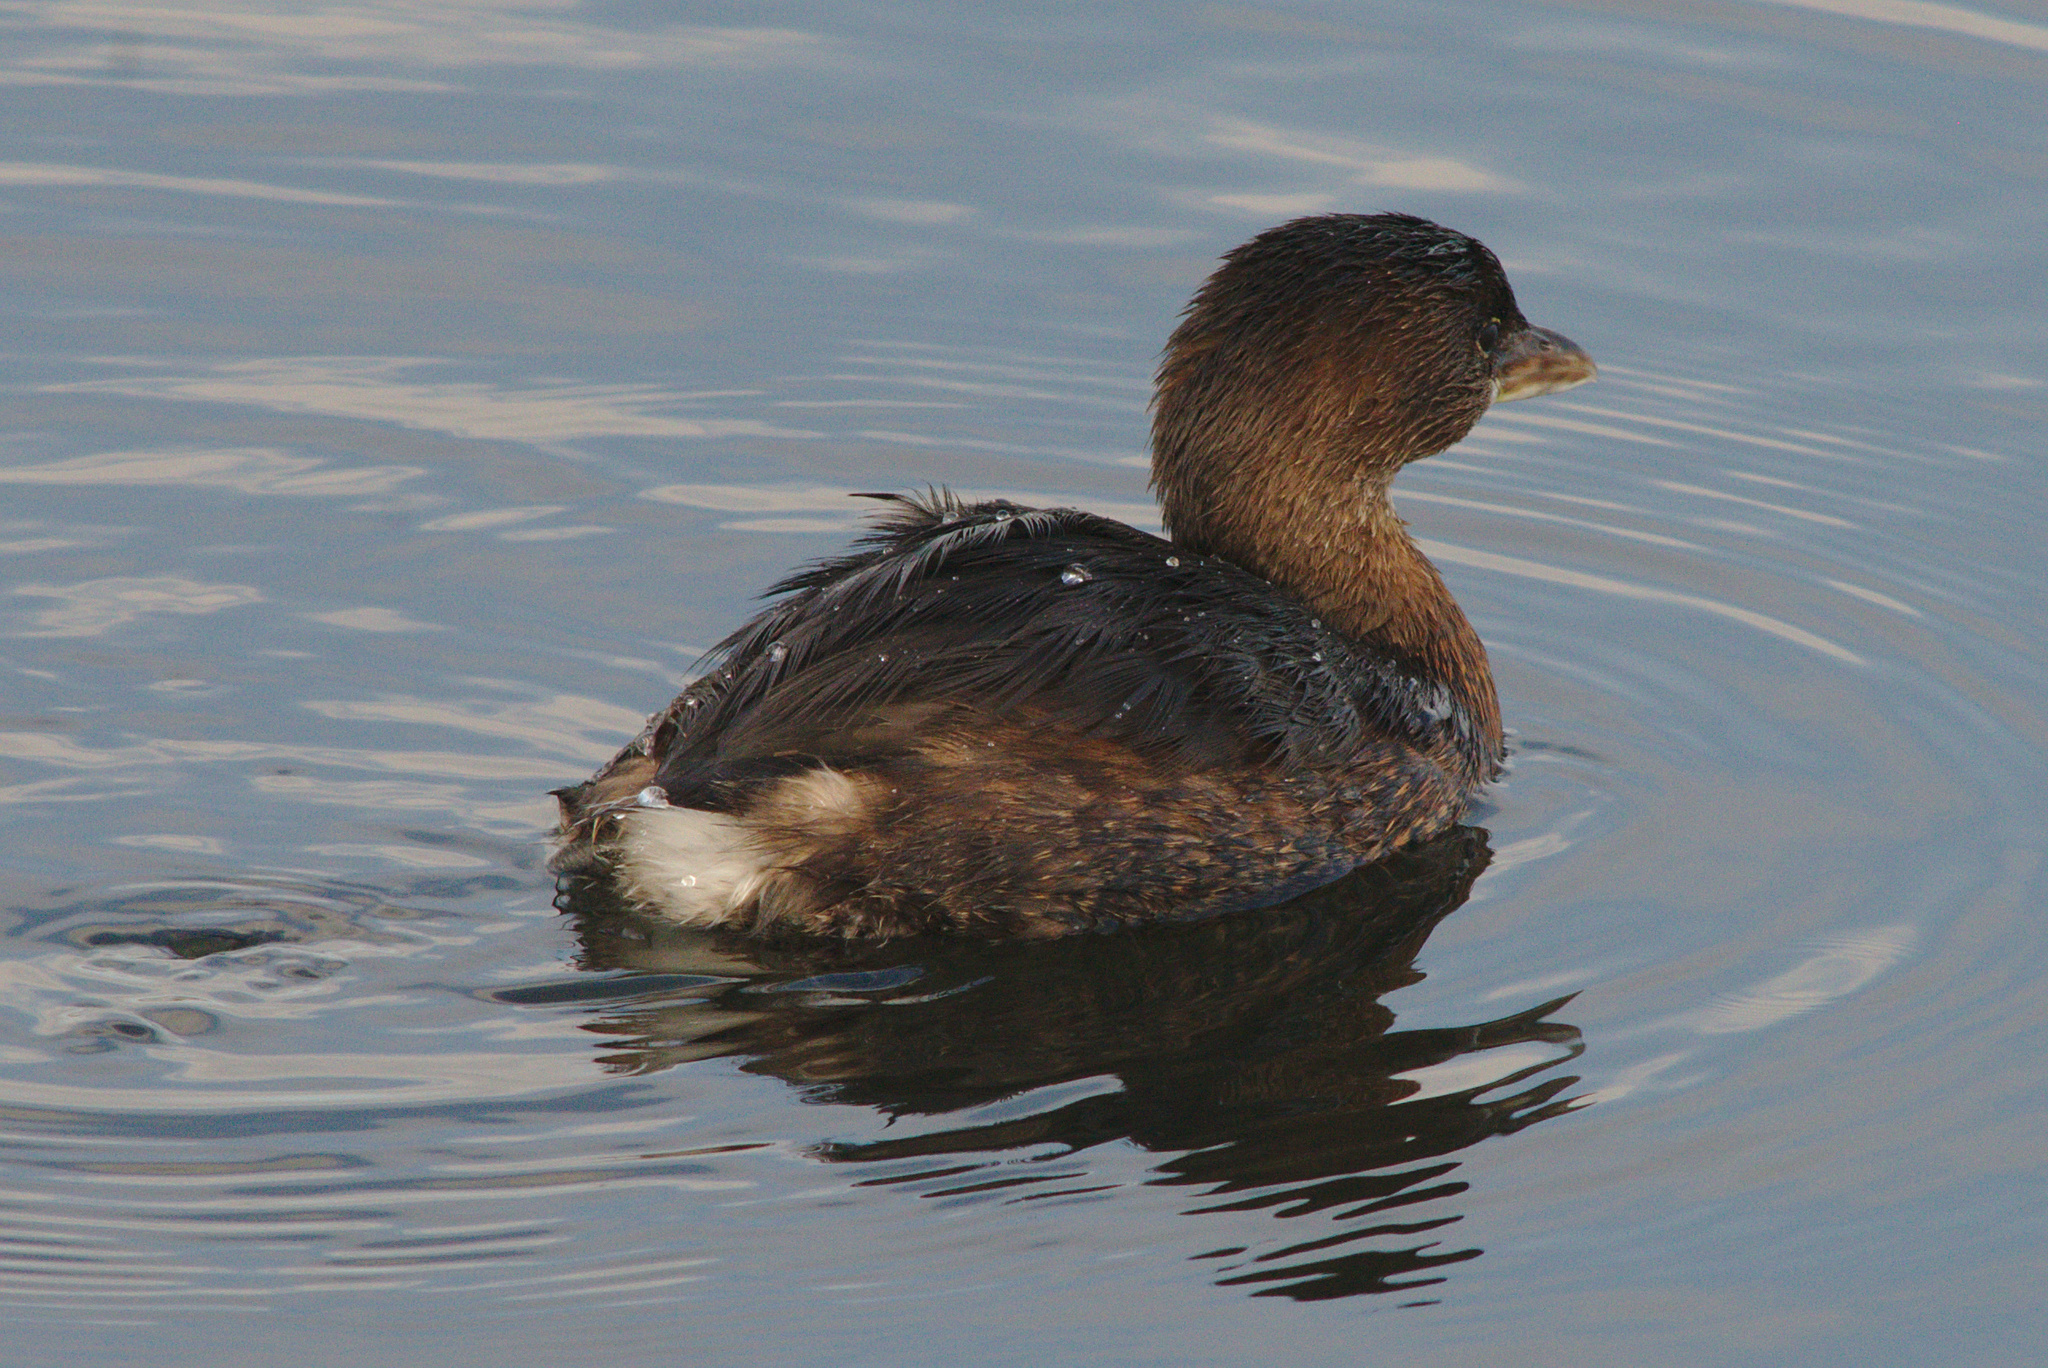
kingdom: Animalia
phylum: Chordata
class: Aves
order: Podicipediformes
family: Podicipedidae
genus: Podilymbus
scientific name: Podilymbus podiceps
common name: Pied-billed grebe
